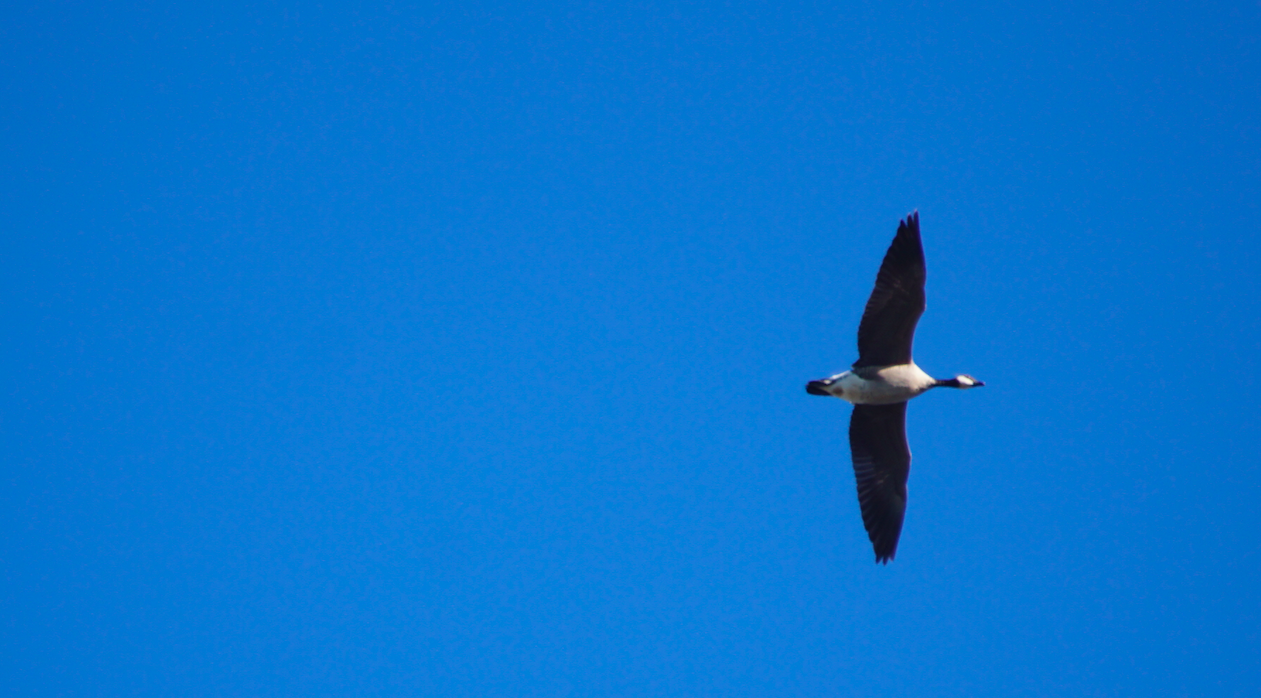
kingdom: Animalia
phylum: Chordata
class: Aves
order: Anseriformes
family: Anatidae
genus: Branta
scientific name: Branta canadensis
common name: Canada goose
